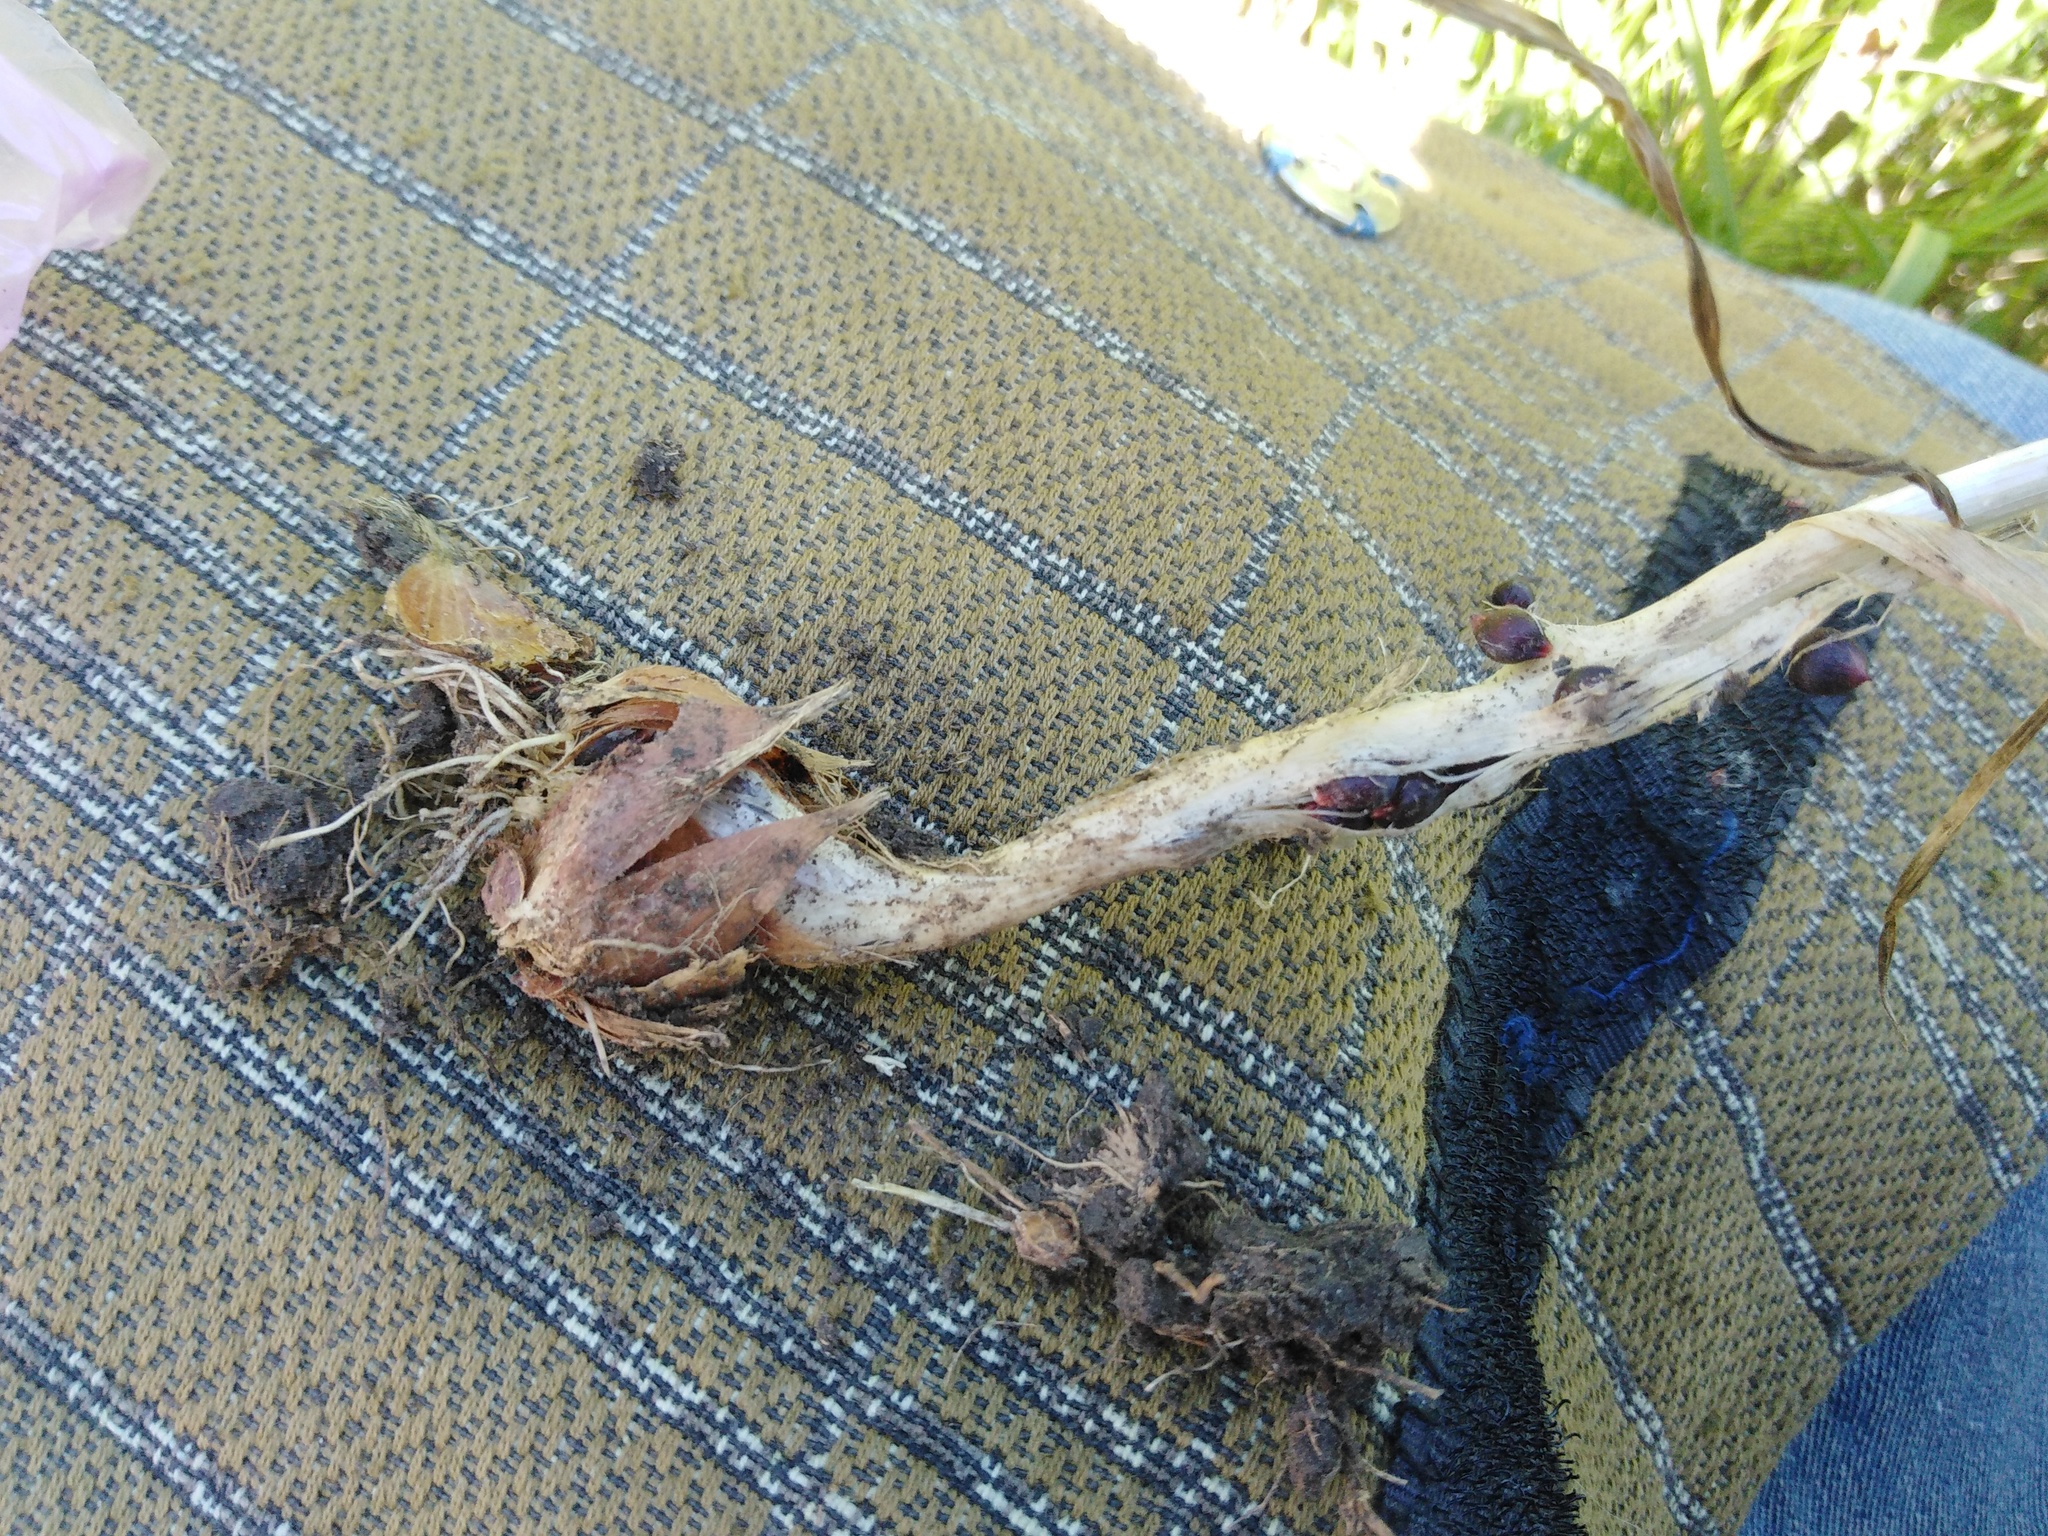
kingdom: Plantae
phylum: Tracheophyta
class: Liliopsida
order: Asparagales
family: Amaryllidaceae
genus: Allium
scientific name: Allium scorodoprasum
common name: Sand leek
